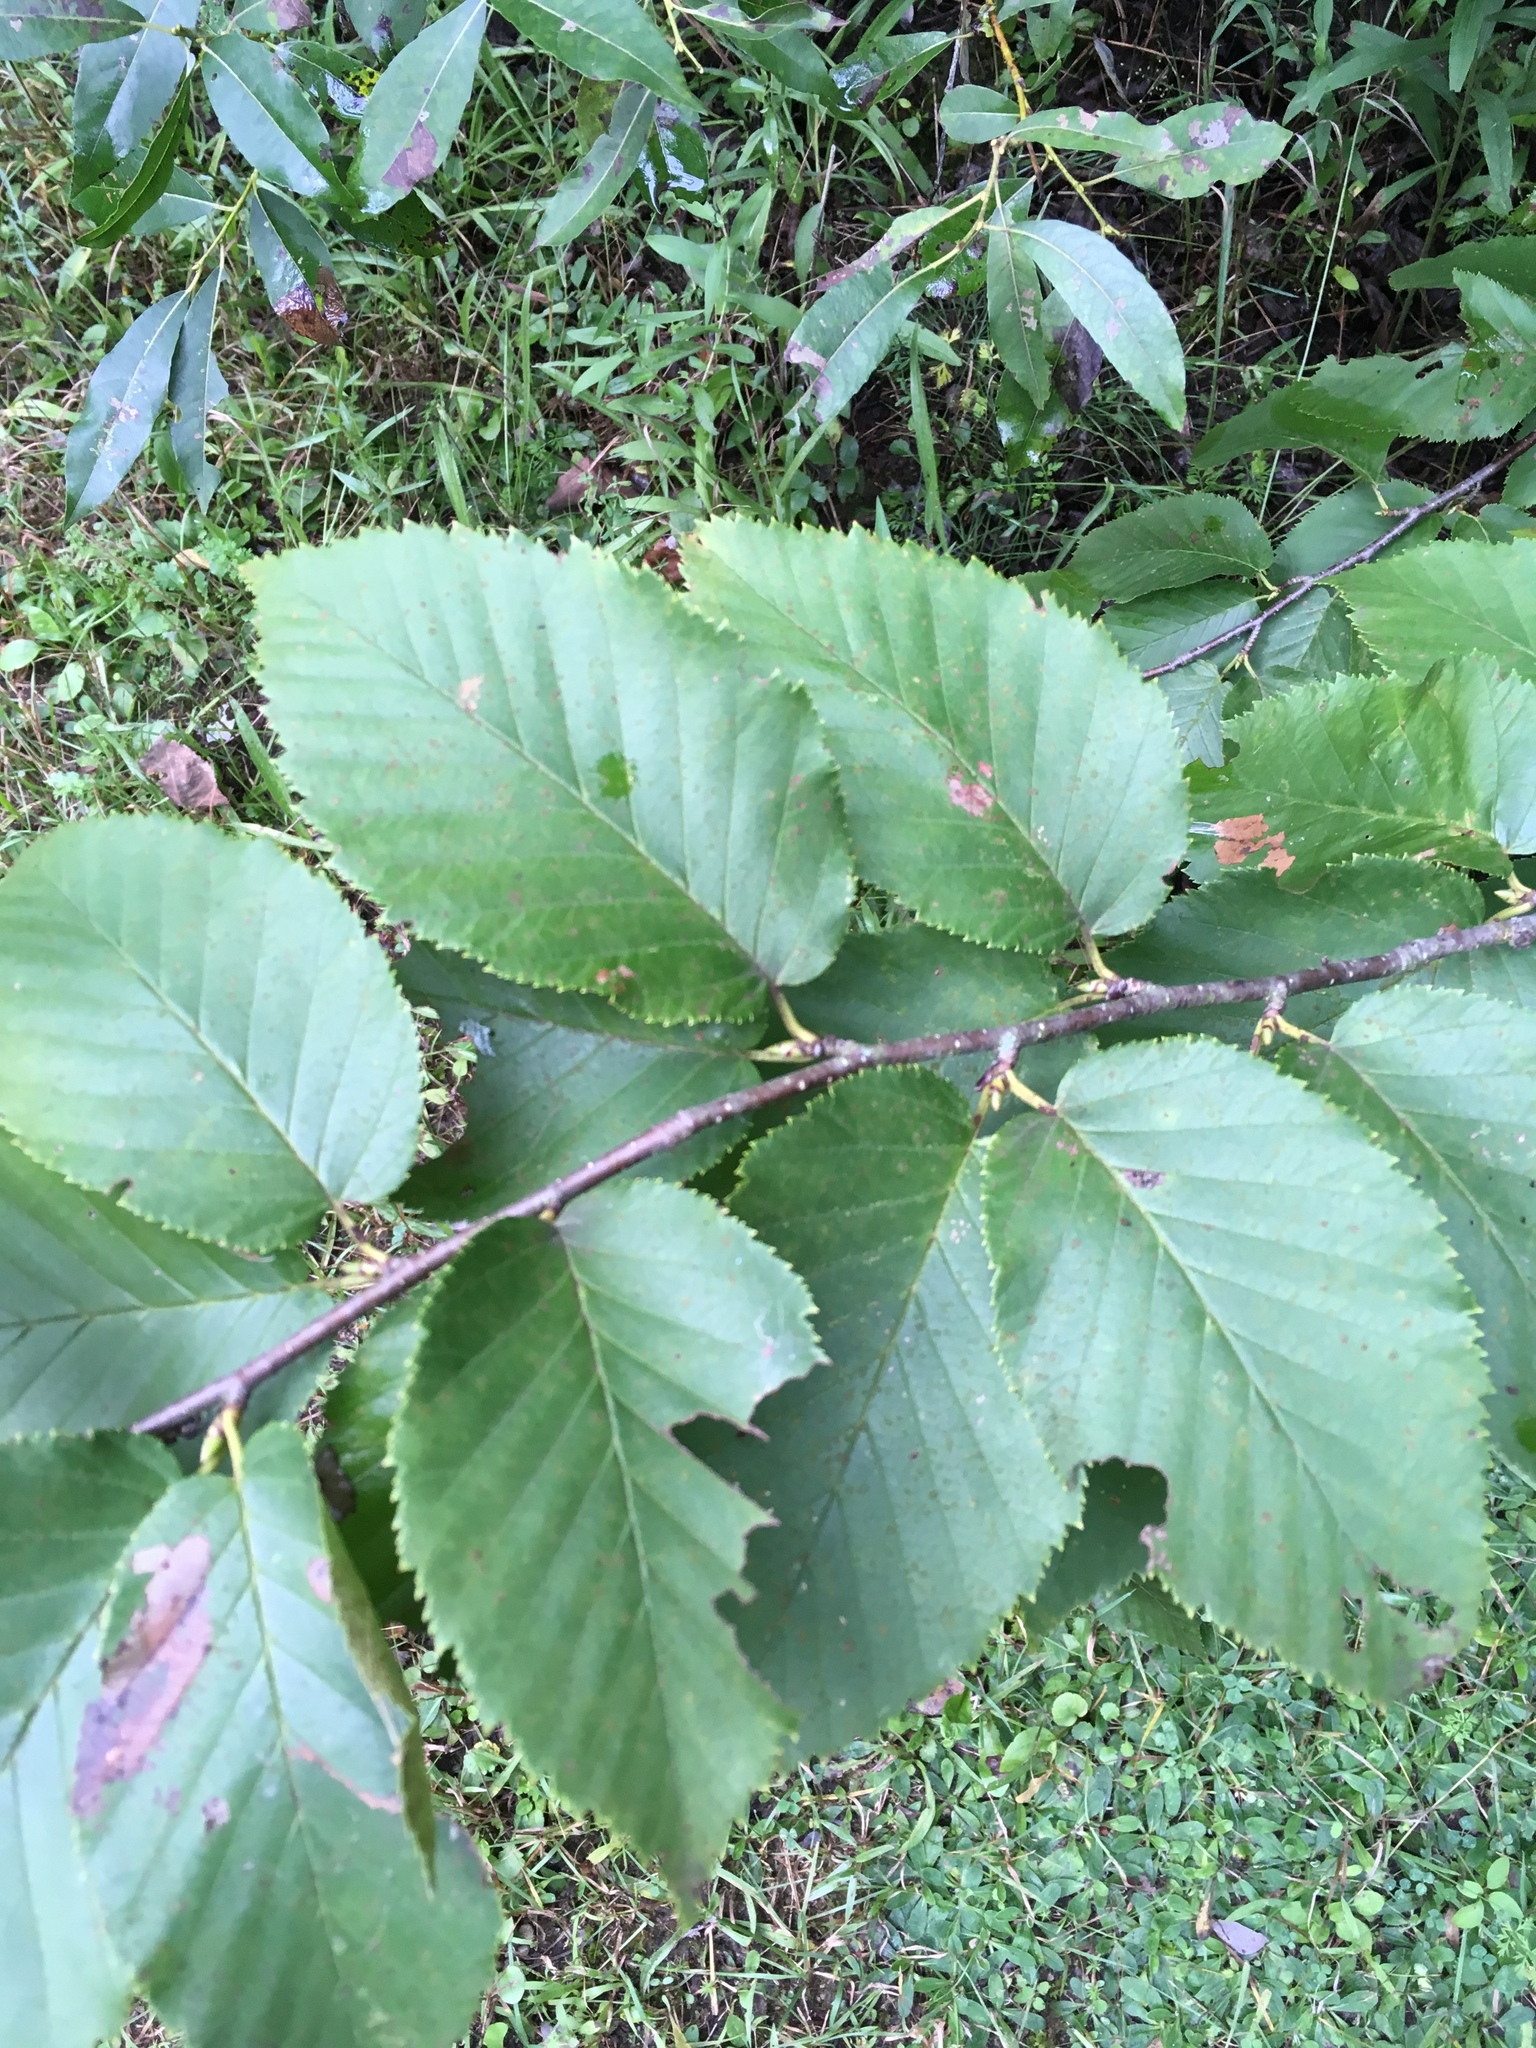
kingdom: Plantae
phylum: Tracheophyta
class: Magnoliopsida
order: Fagales
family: Betulaceae
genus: Betula
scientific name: Betula alleghaniensis
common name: Yellow birch
